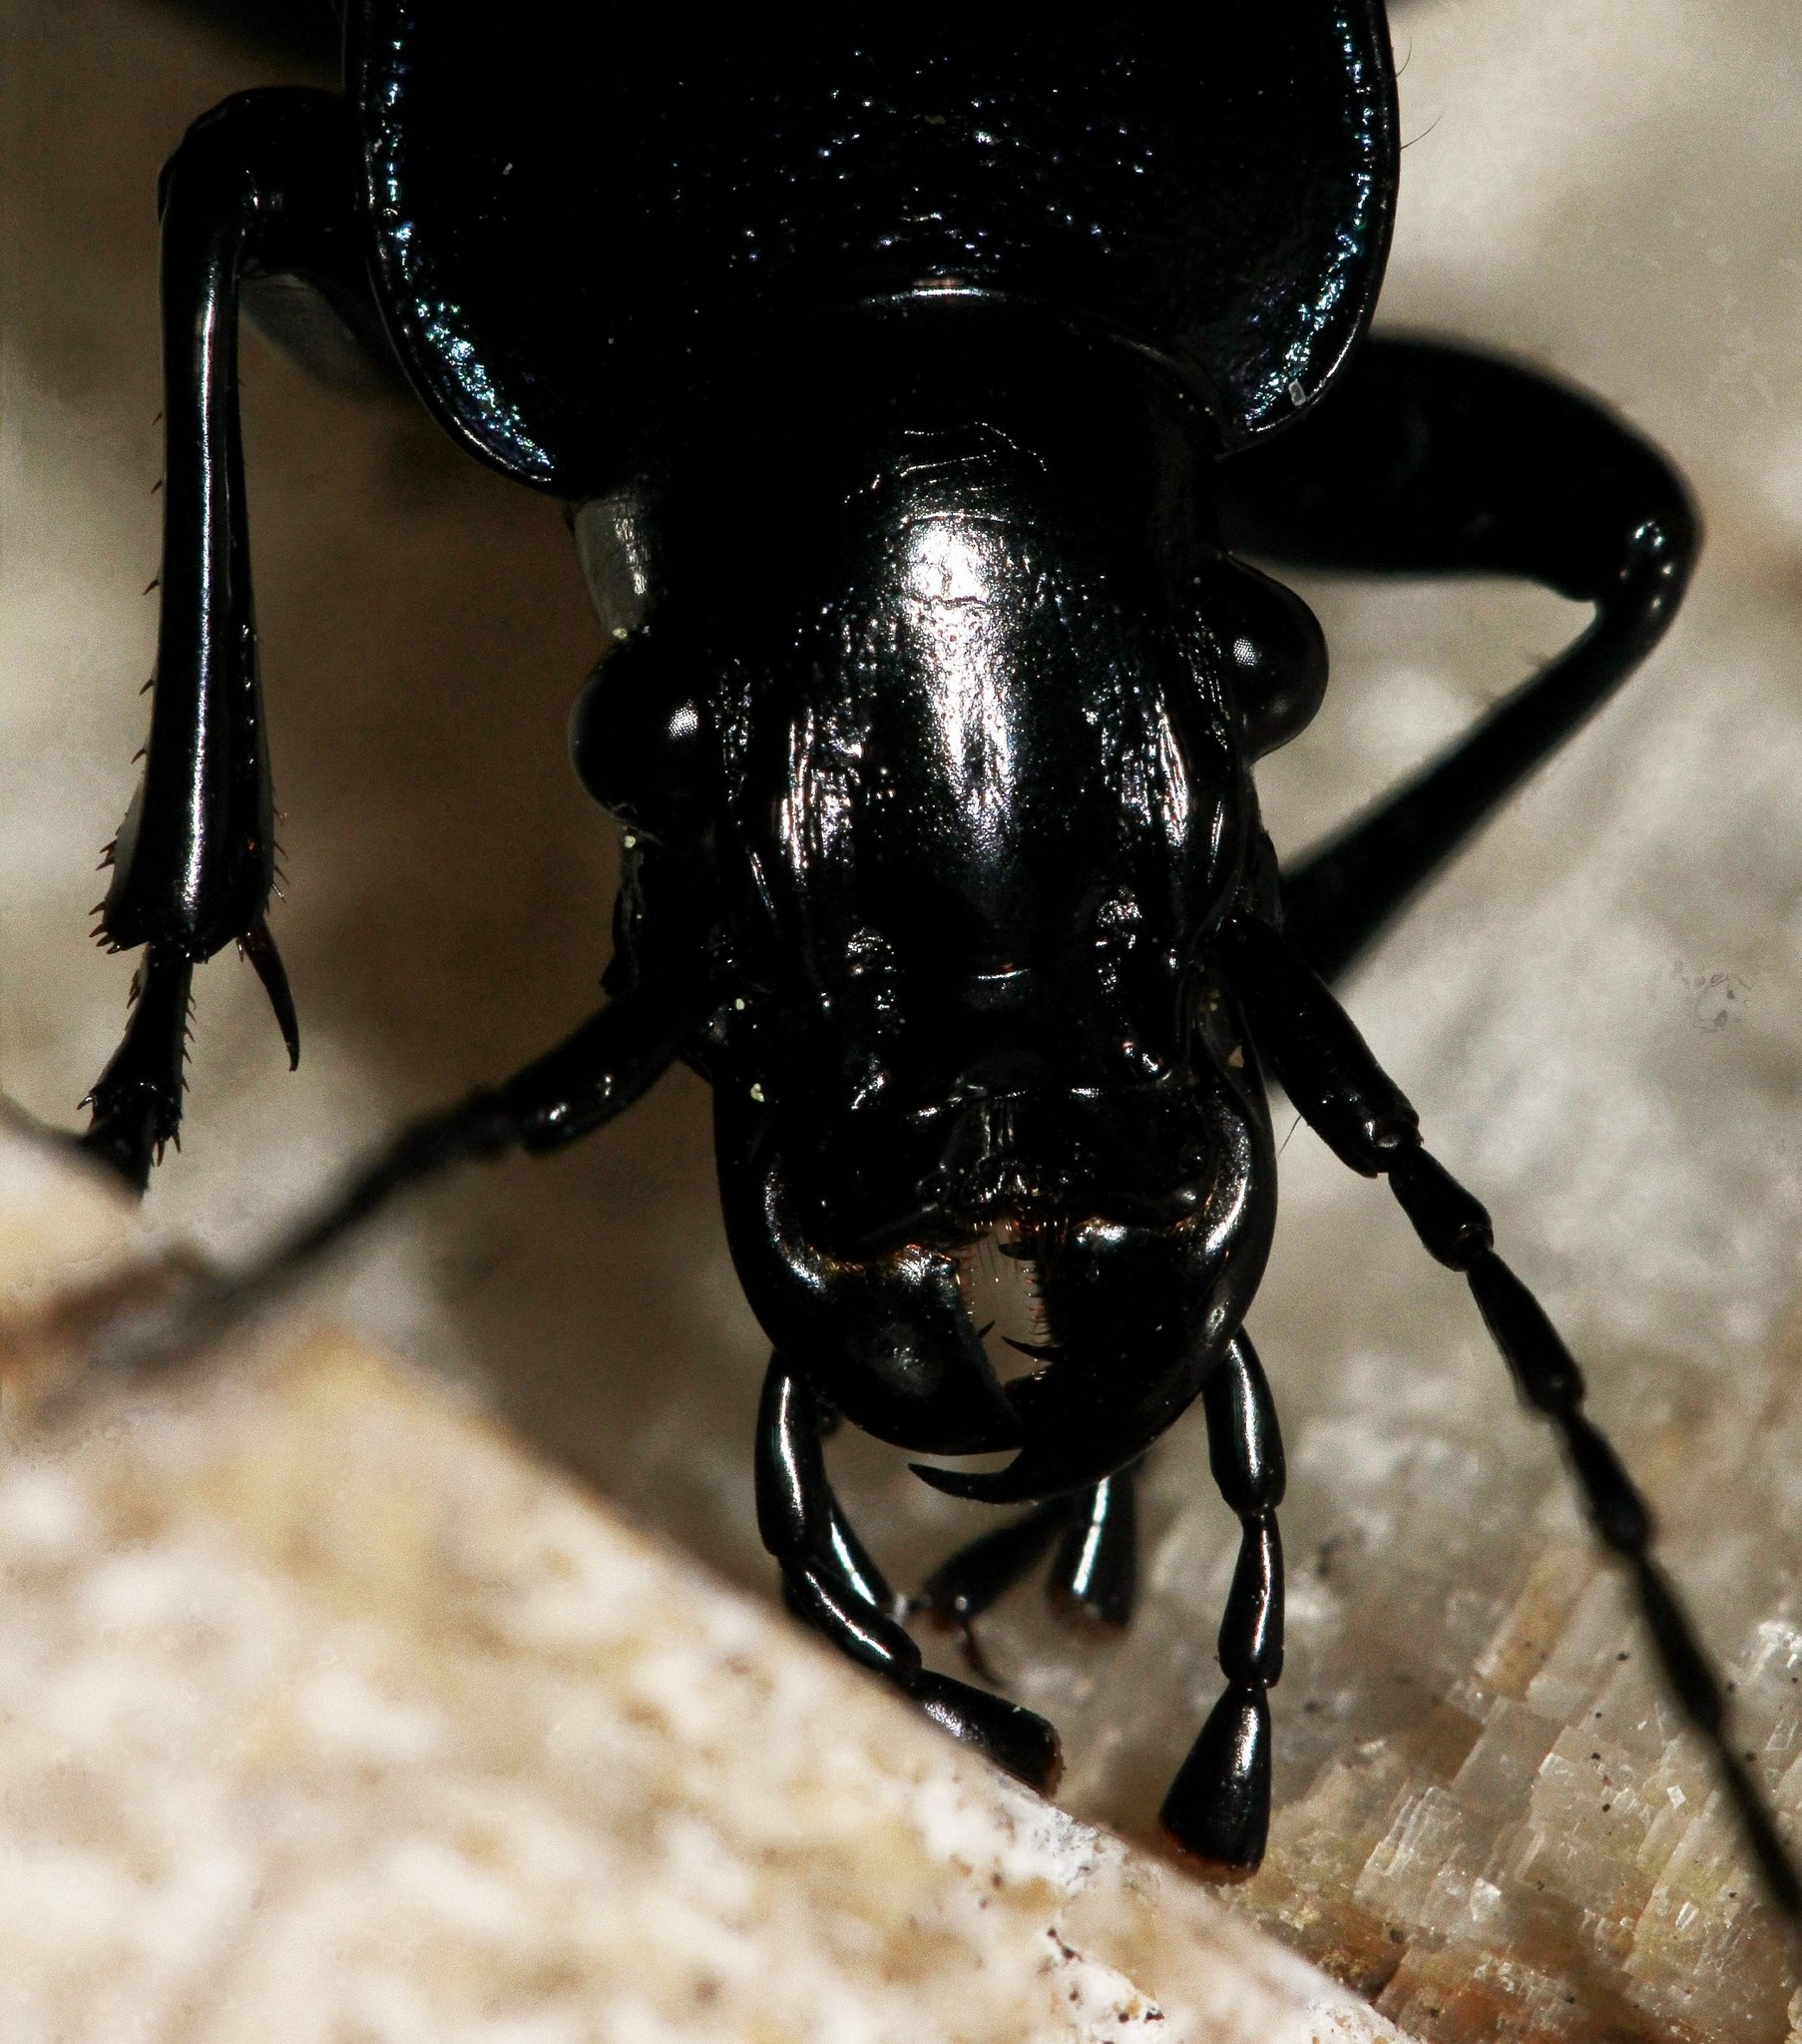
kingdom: Animalia
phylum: Arthropoda
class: Insecta
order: Coleoptera
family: Carabidae
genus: Carabus
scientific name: Carabus
